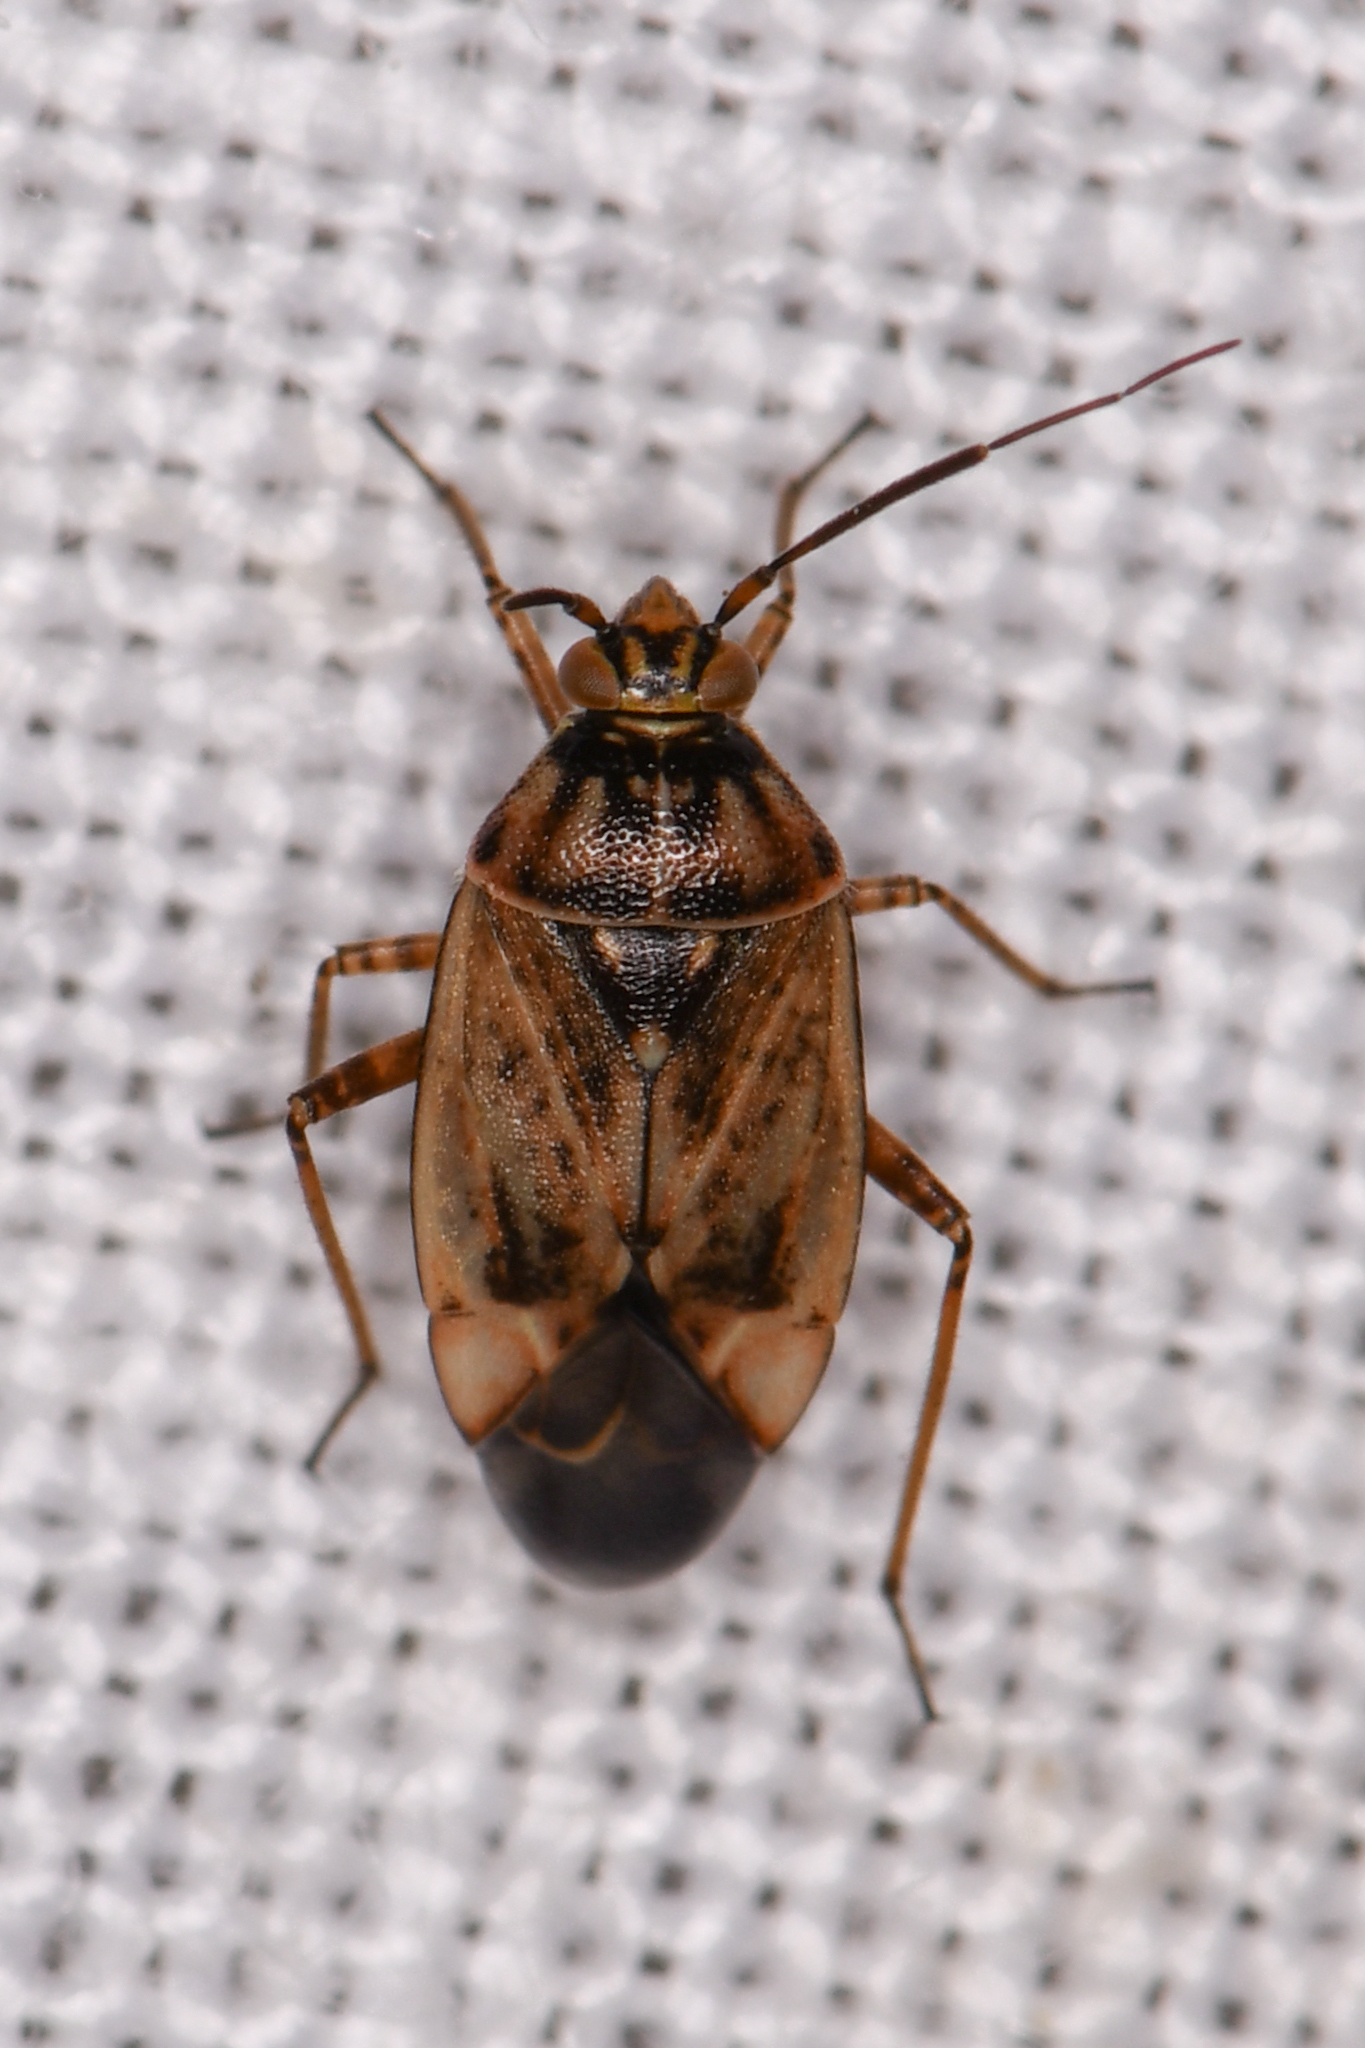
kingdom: Animalia
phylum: Arthropoda
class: Insecta
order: Hemiptera
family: Miridae
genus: Lygus
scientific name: Lygus rugulipennis
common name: European tarnished plant bug
